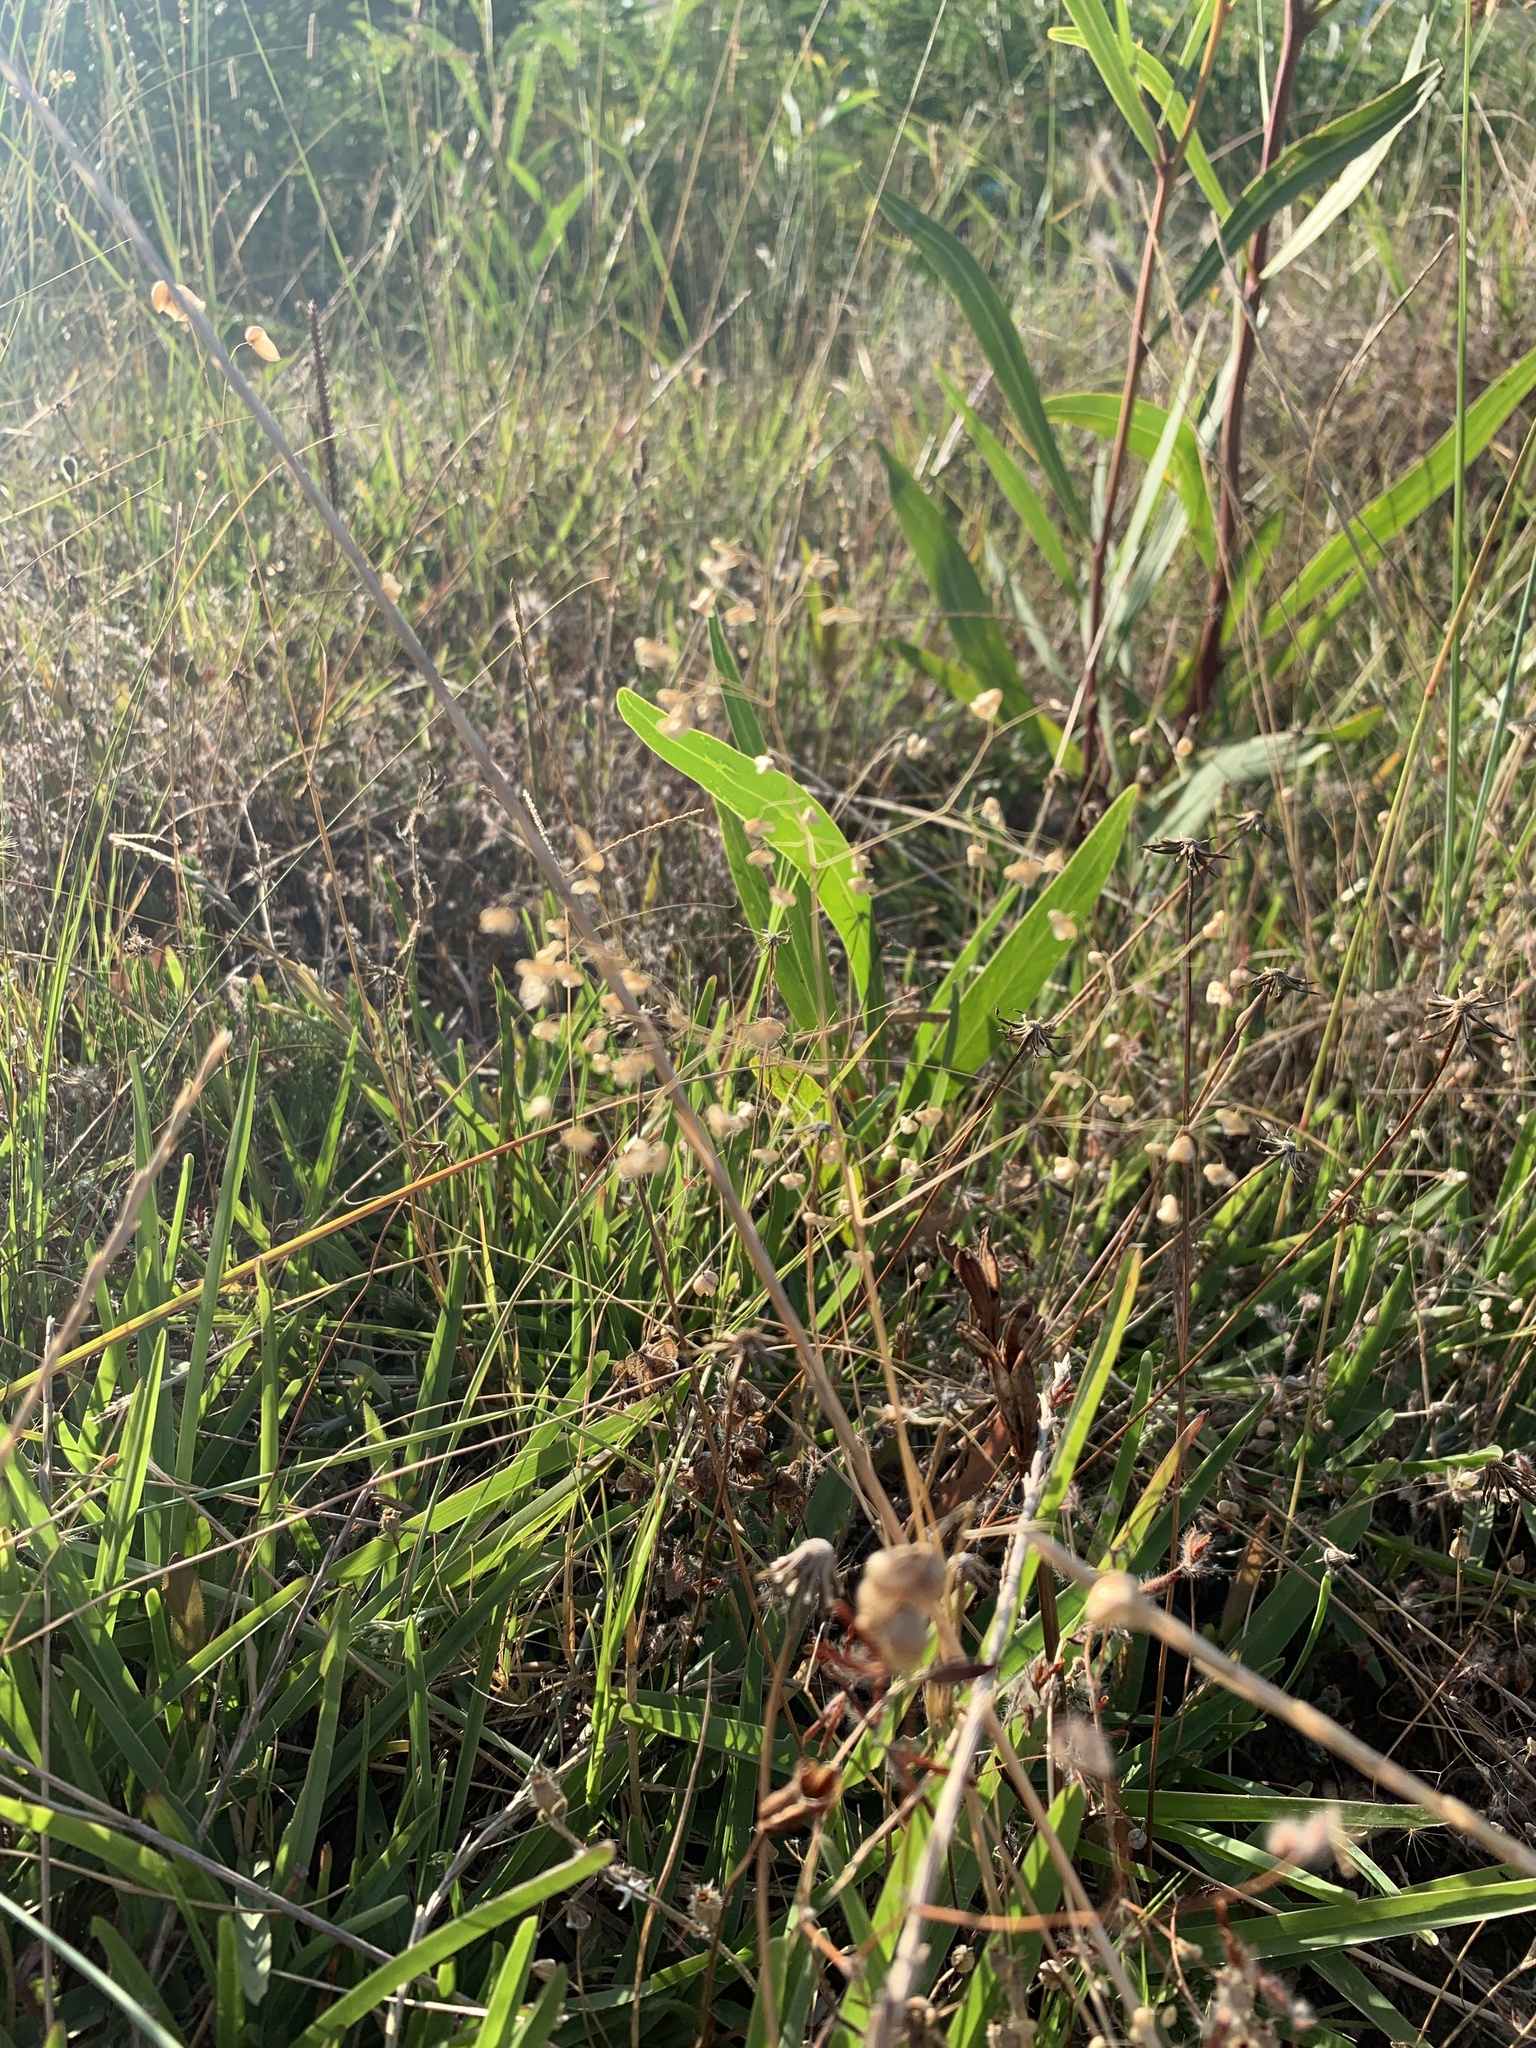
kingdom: Plantae
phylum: Tracheophyta
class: Liliopsida
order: Poales
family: Poaceae
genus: Briza
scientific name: Briza minor
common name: Lesser quaking-grass
